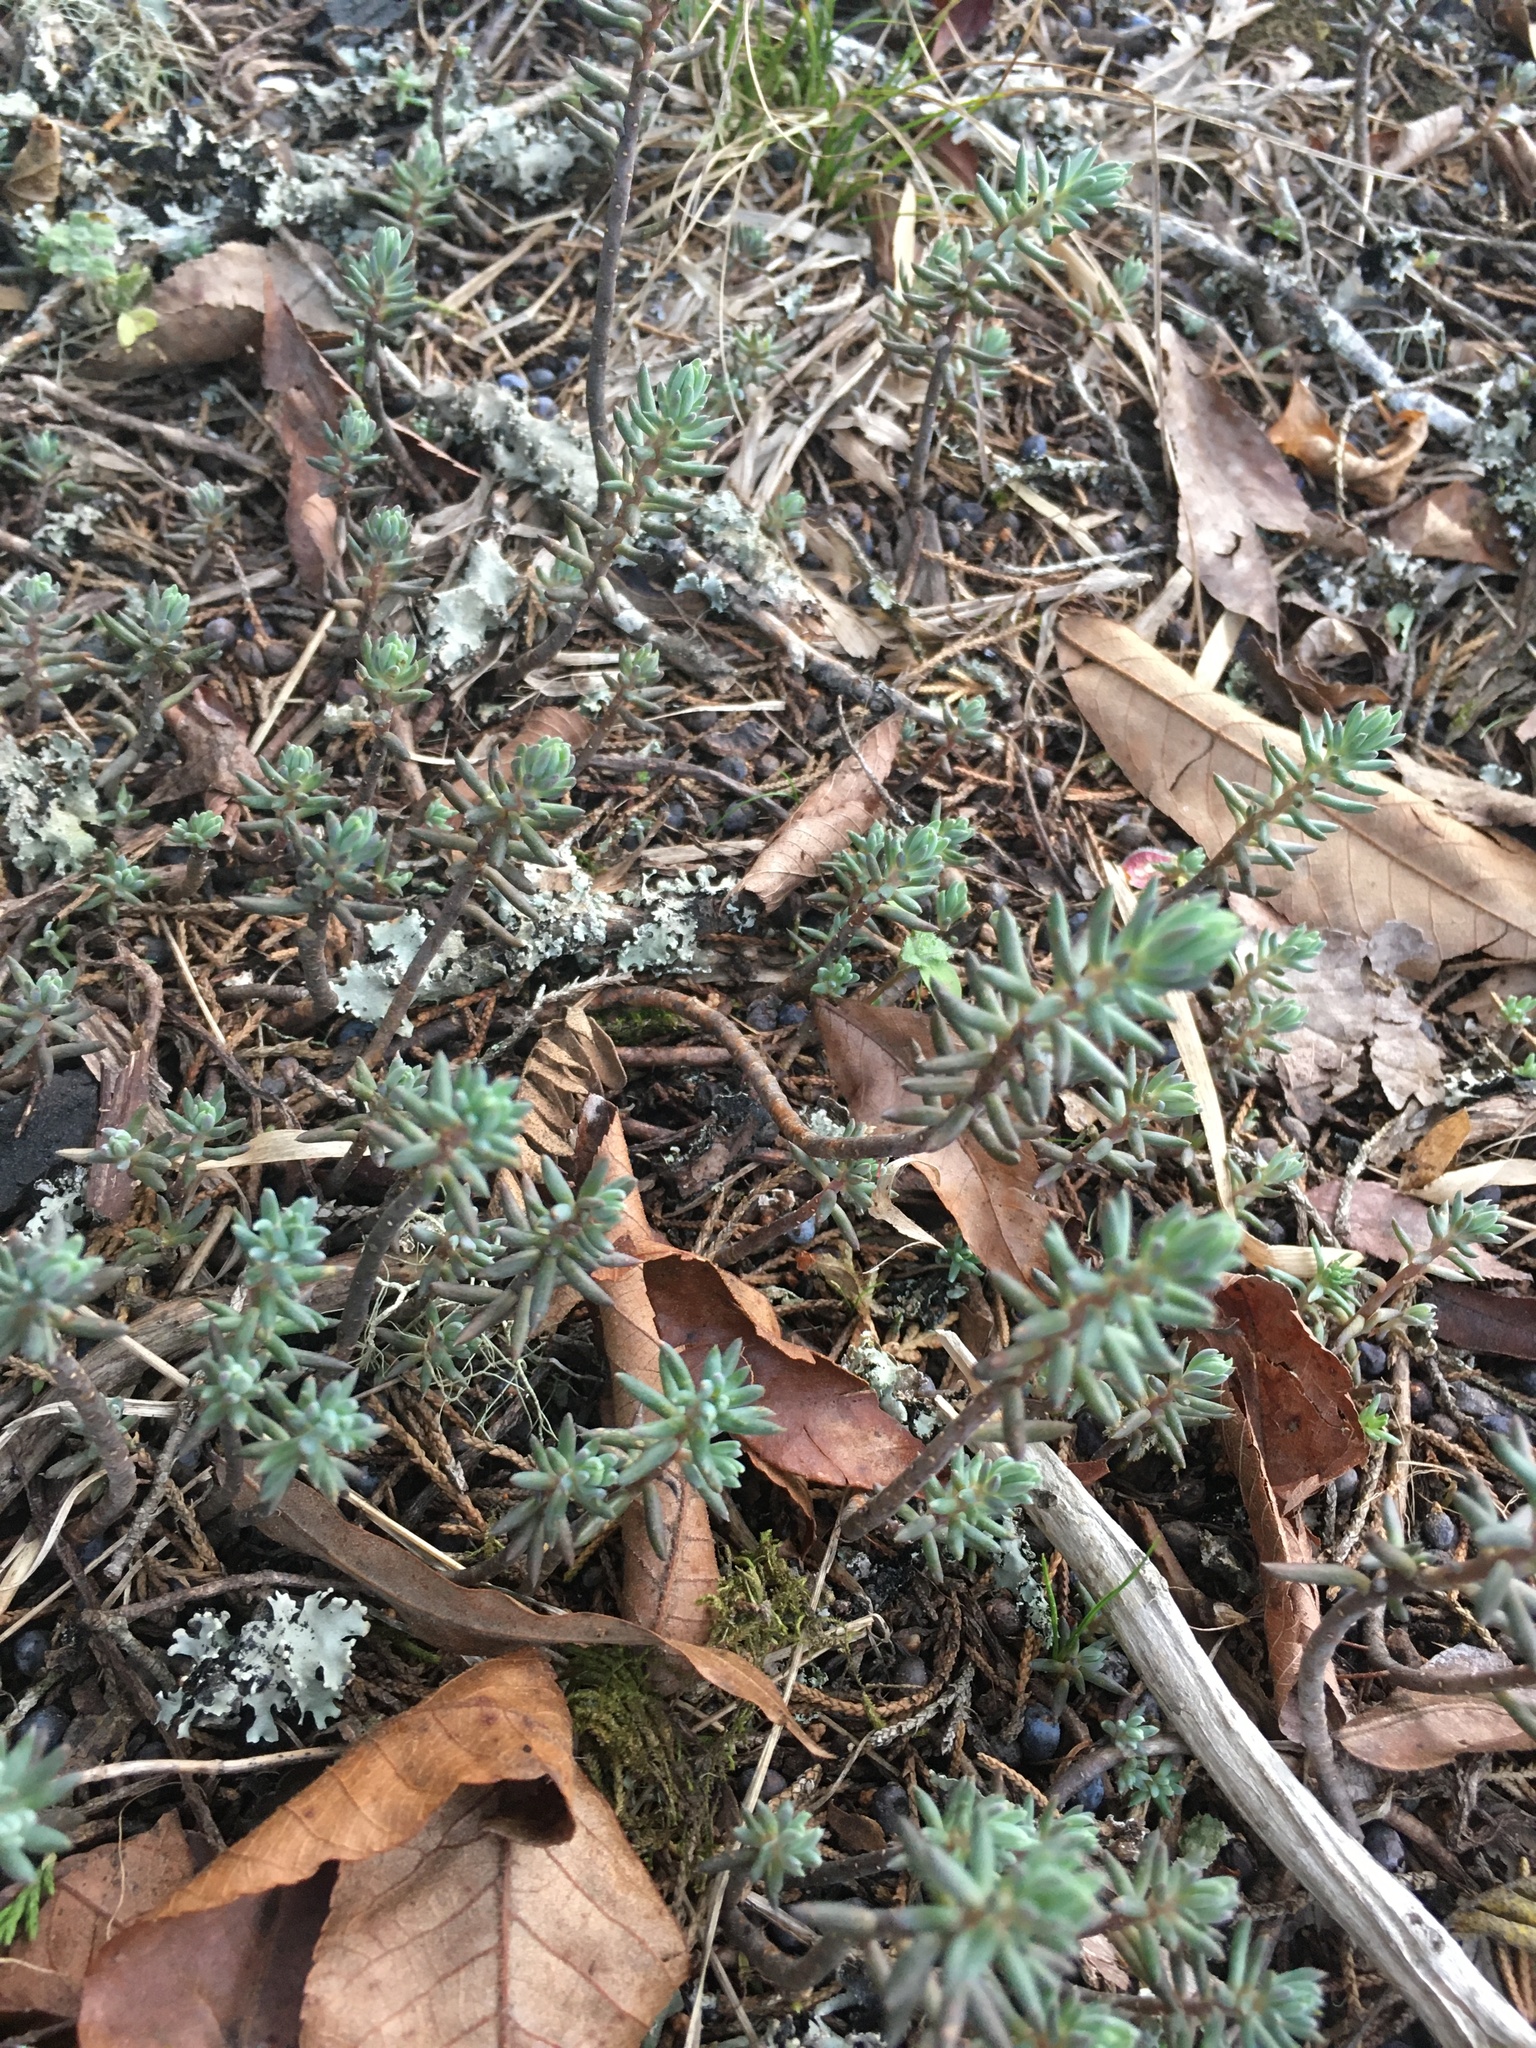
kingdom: Plantae
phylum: Tracheophyta
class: Magnoliopsida
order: Saxifragales
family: Crassulaceae
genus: Petrosedum
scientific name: Petrosedum rupestre
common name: Jenny's stonecrop
